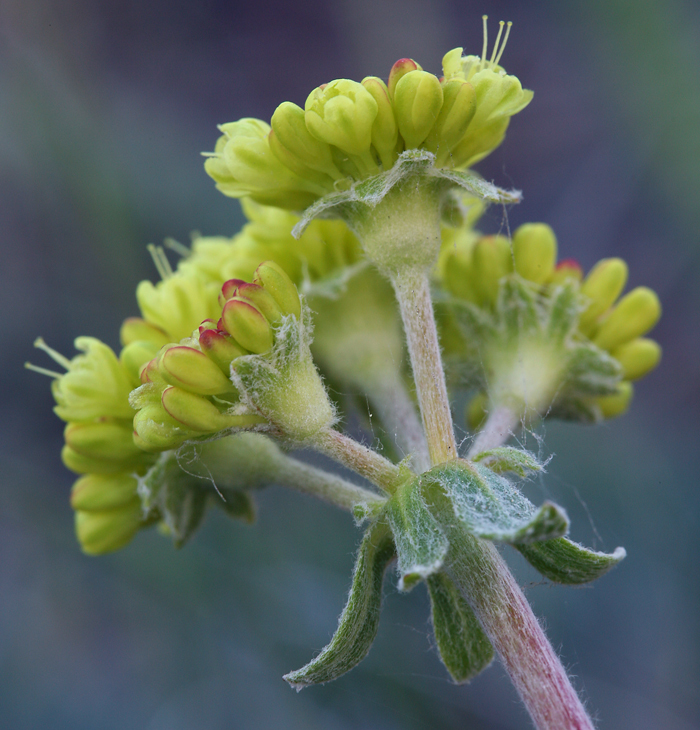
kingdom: Plantae
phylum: Tracheophyta
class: Magnoliopsida
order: Caryophyllales
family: Polygonaceae
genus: Eriogonum
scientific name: Eriogonum umbellatum
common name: Sulfur-buckwheat
